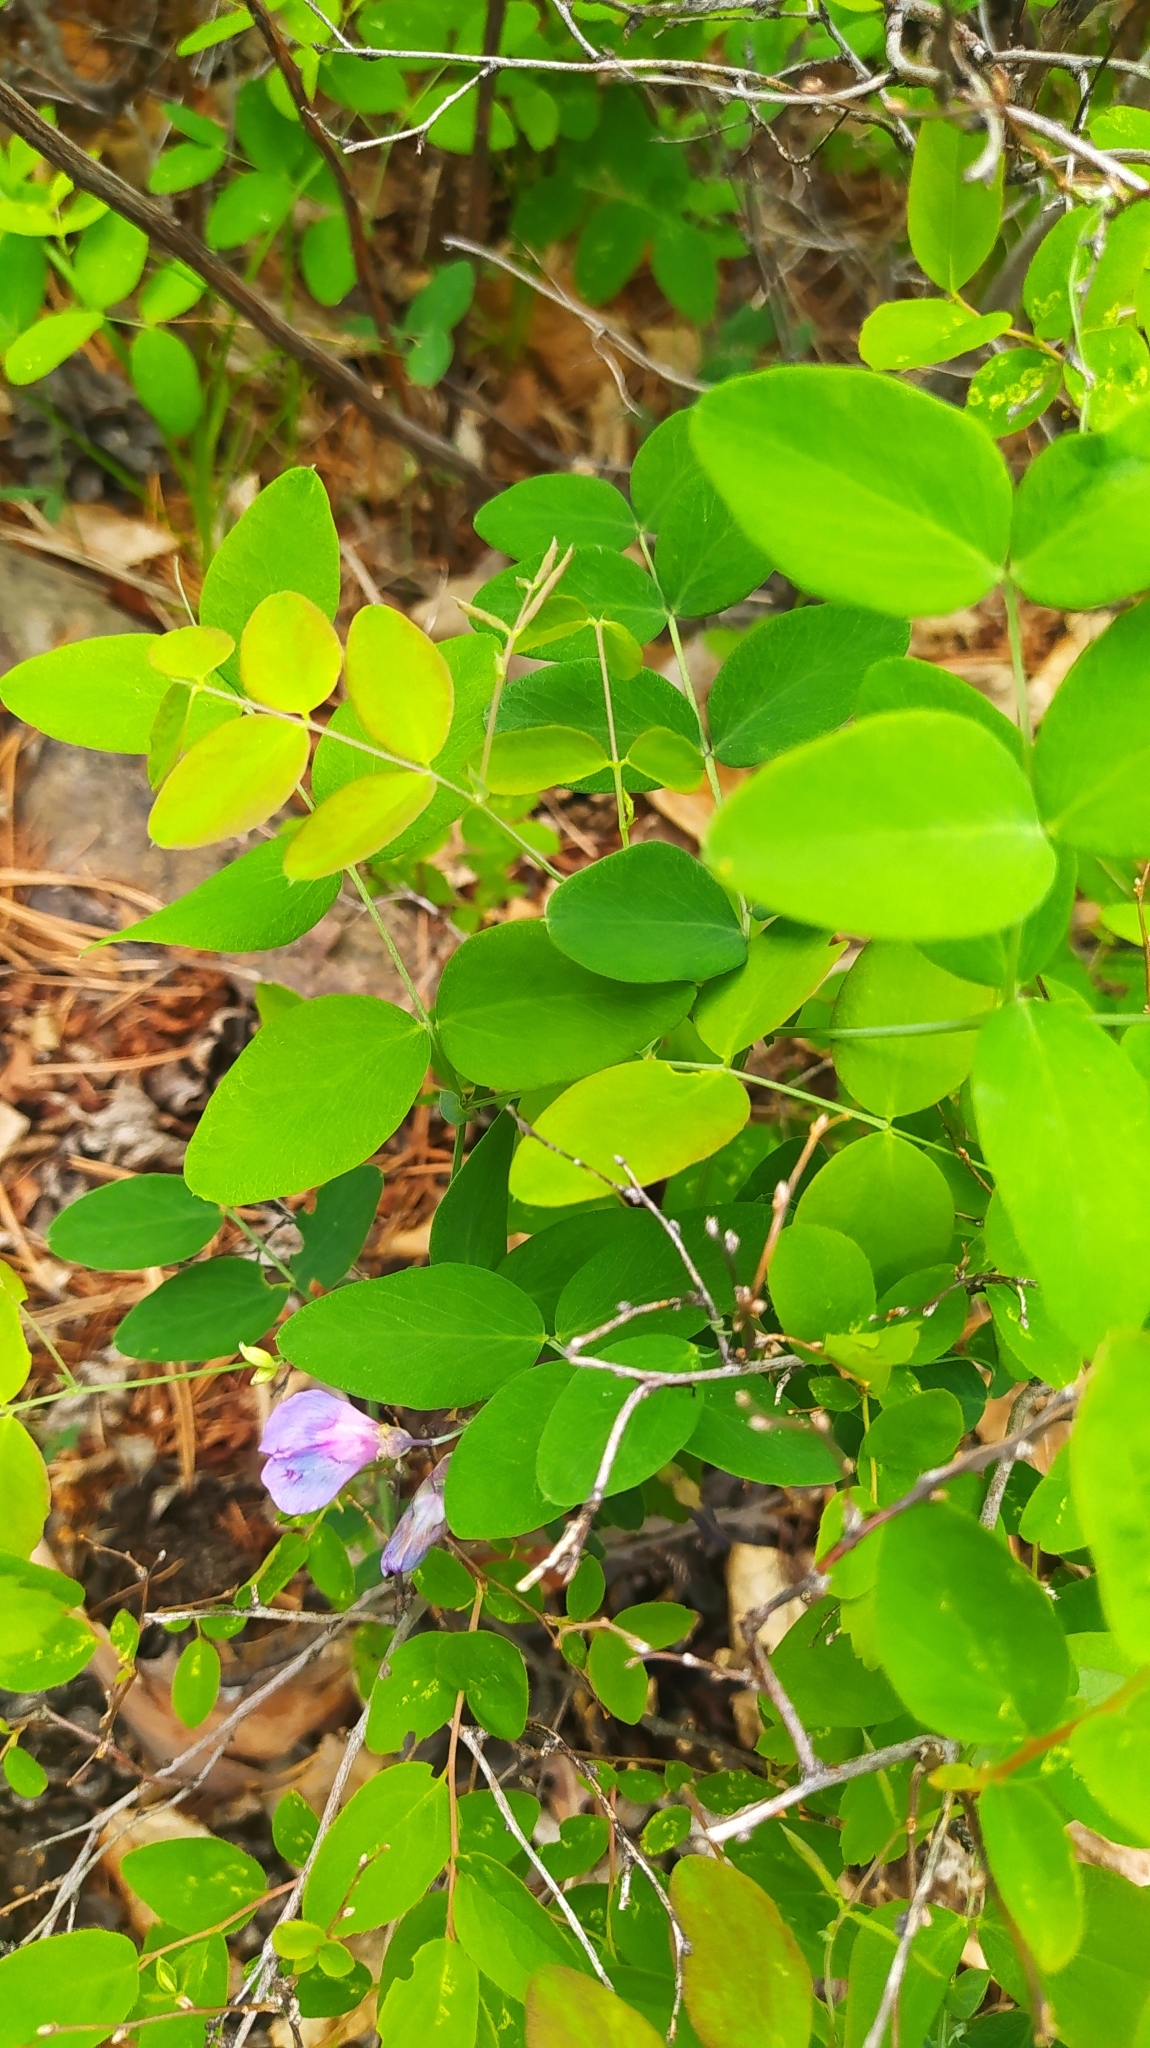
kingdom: Plantae
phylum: Tracheophyta
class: Magnoliopsida
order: Fabales
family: Fabaceae
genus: Lathyrus
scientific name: Lathyrus humilis
